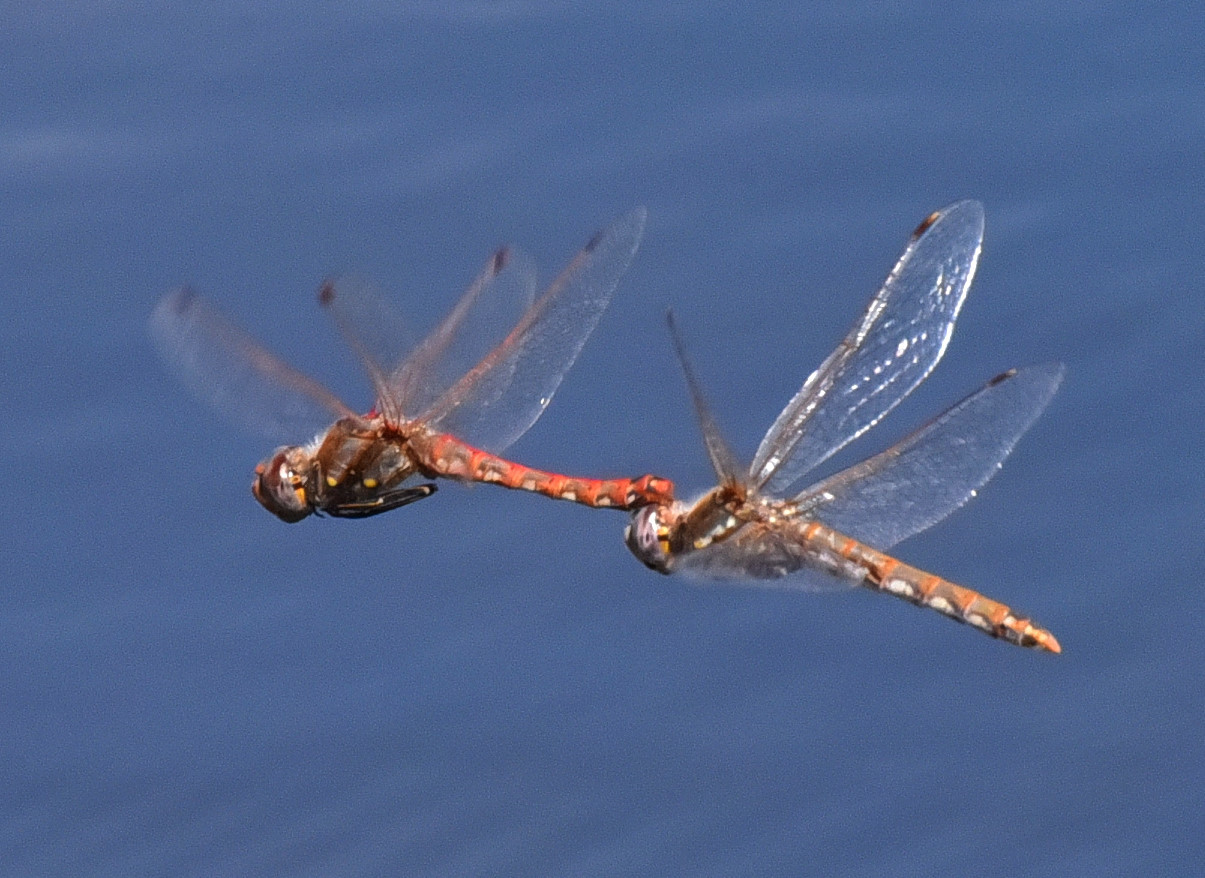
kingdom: Animalia
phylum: Arthropoda
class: Insecta
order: Odonata
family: Libellulidae
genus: Sympetrum
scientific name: Sympetrum corruptum
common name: Variegated meadowhawk
